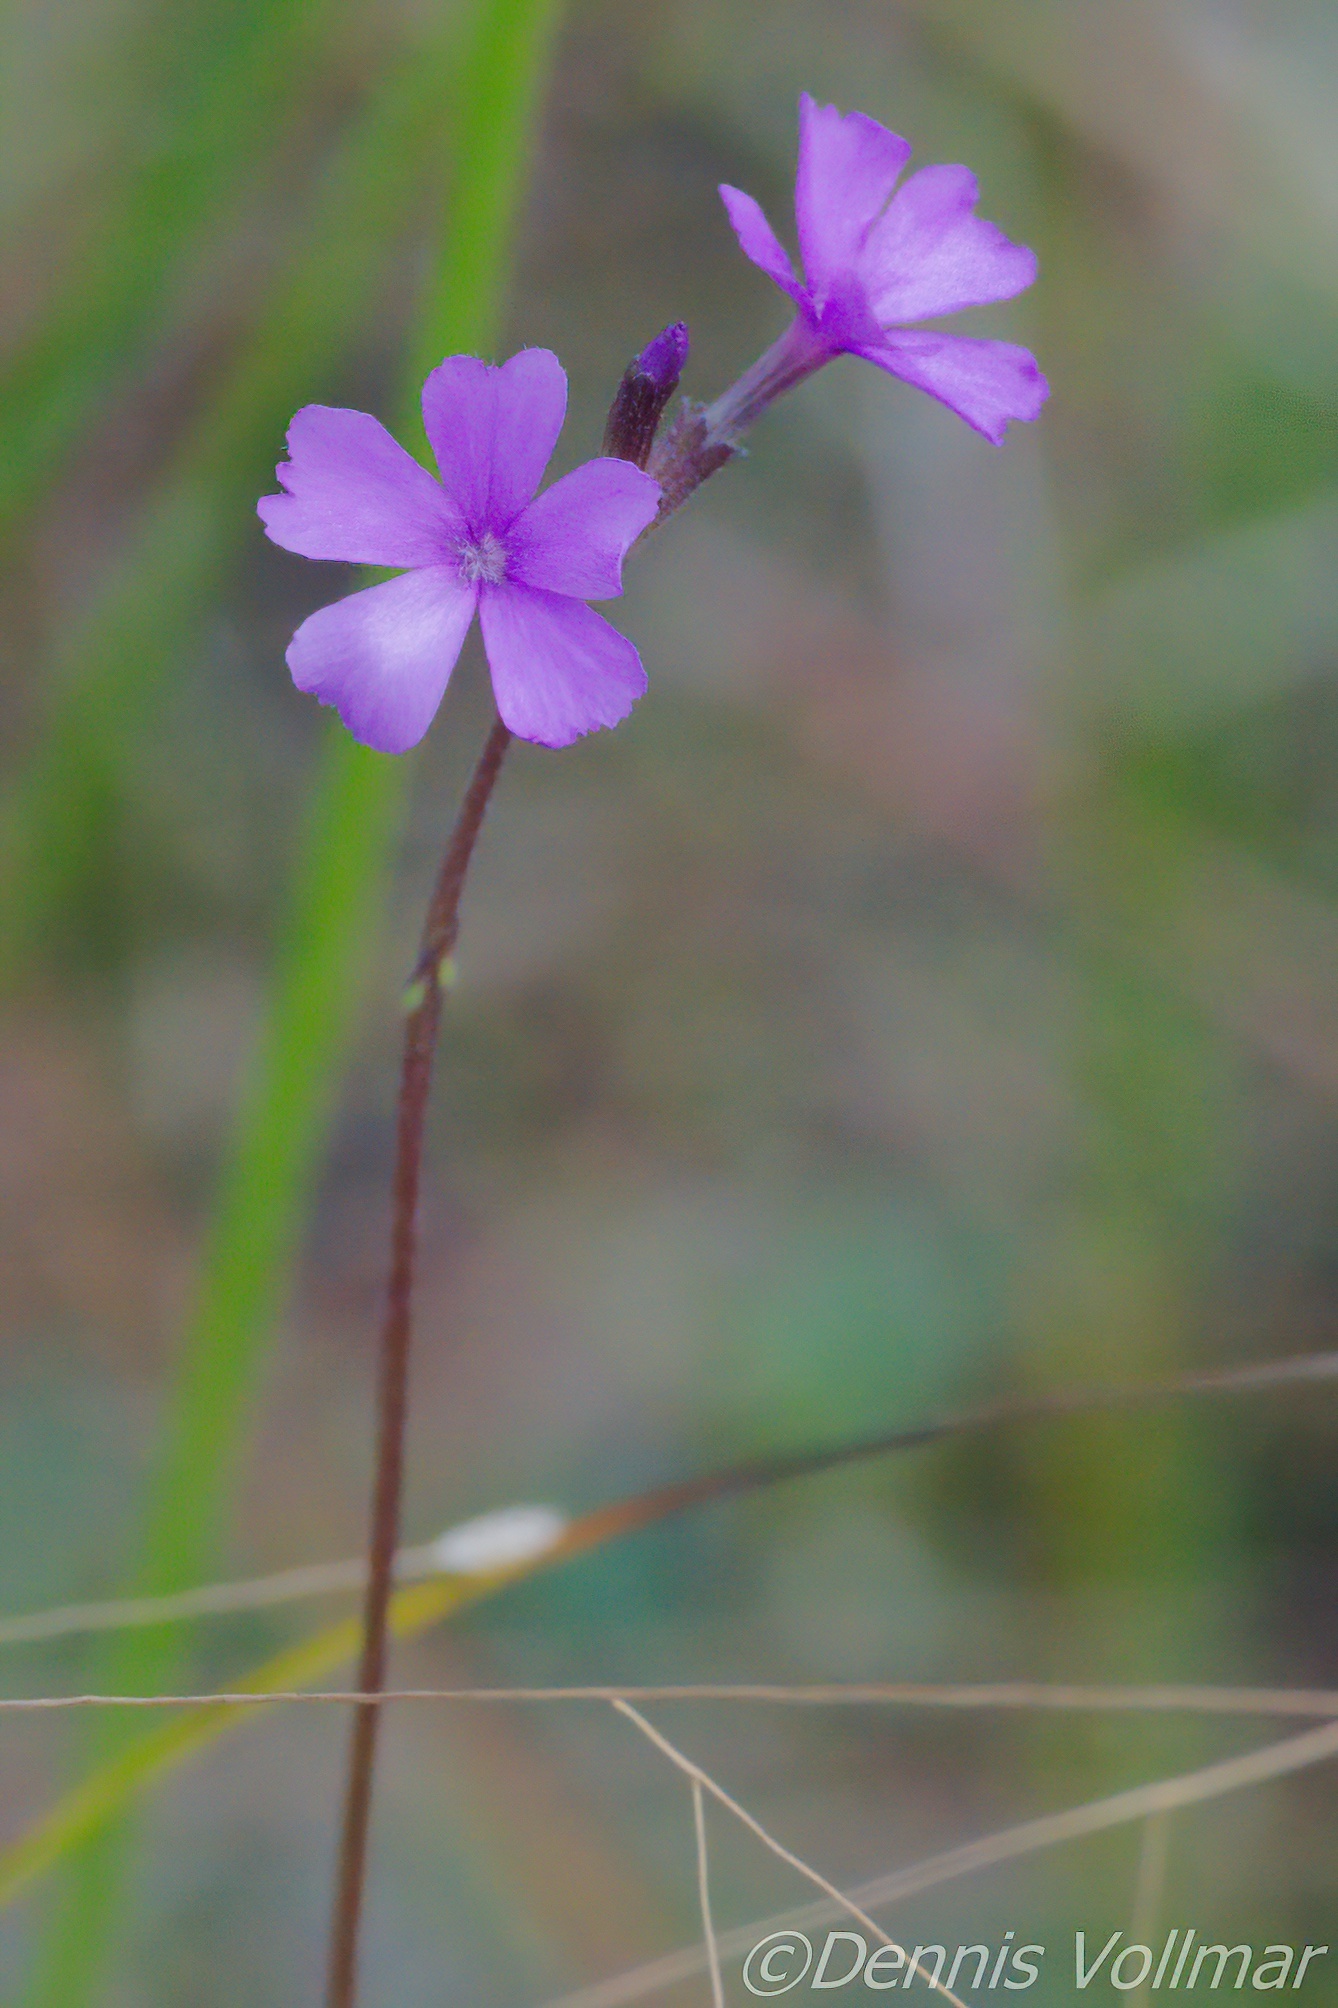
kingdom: Plantae
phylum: Tracheophyta
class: Magnoliopsida
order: Lamiales
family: Orobanchaceae
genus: Buchnera
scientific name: Buchnera floridana
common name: Florida bluehearts
